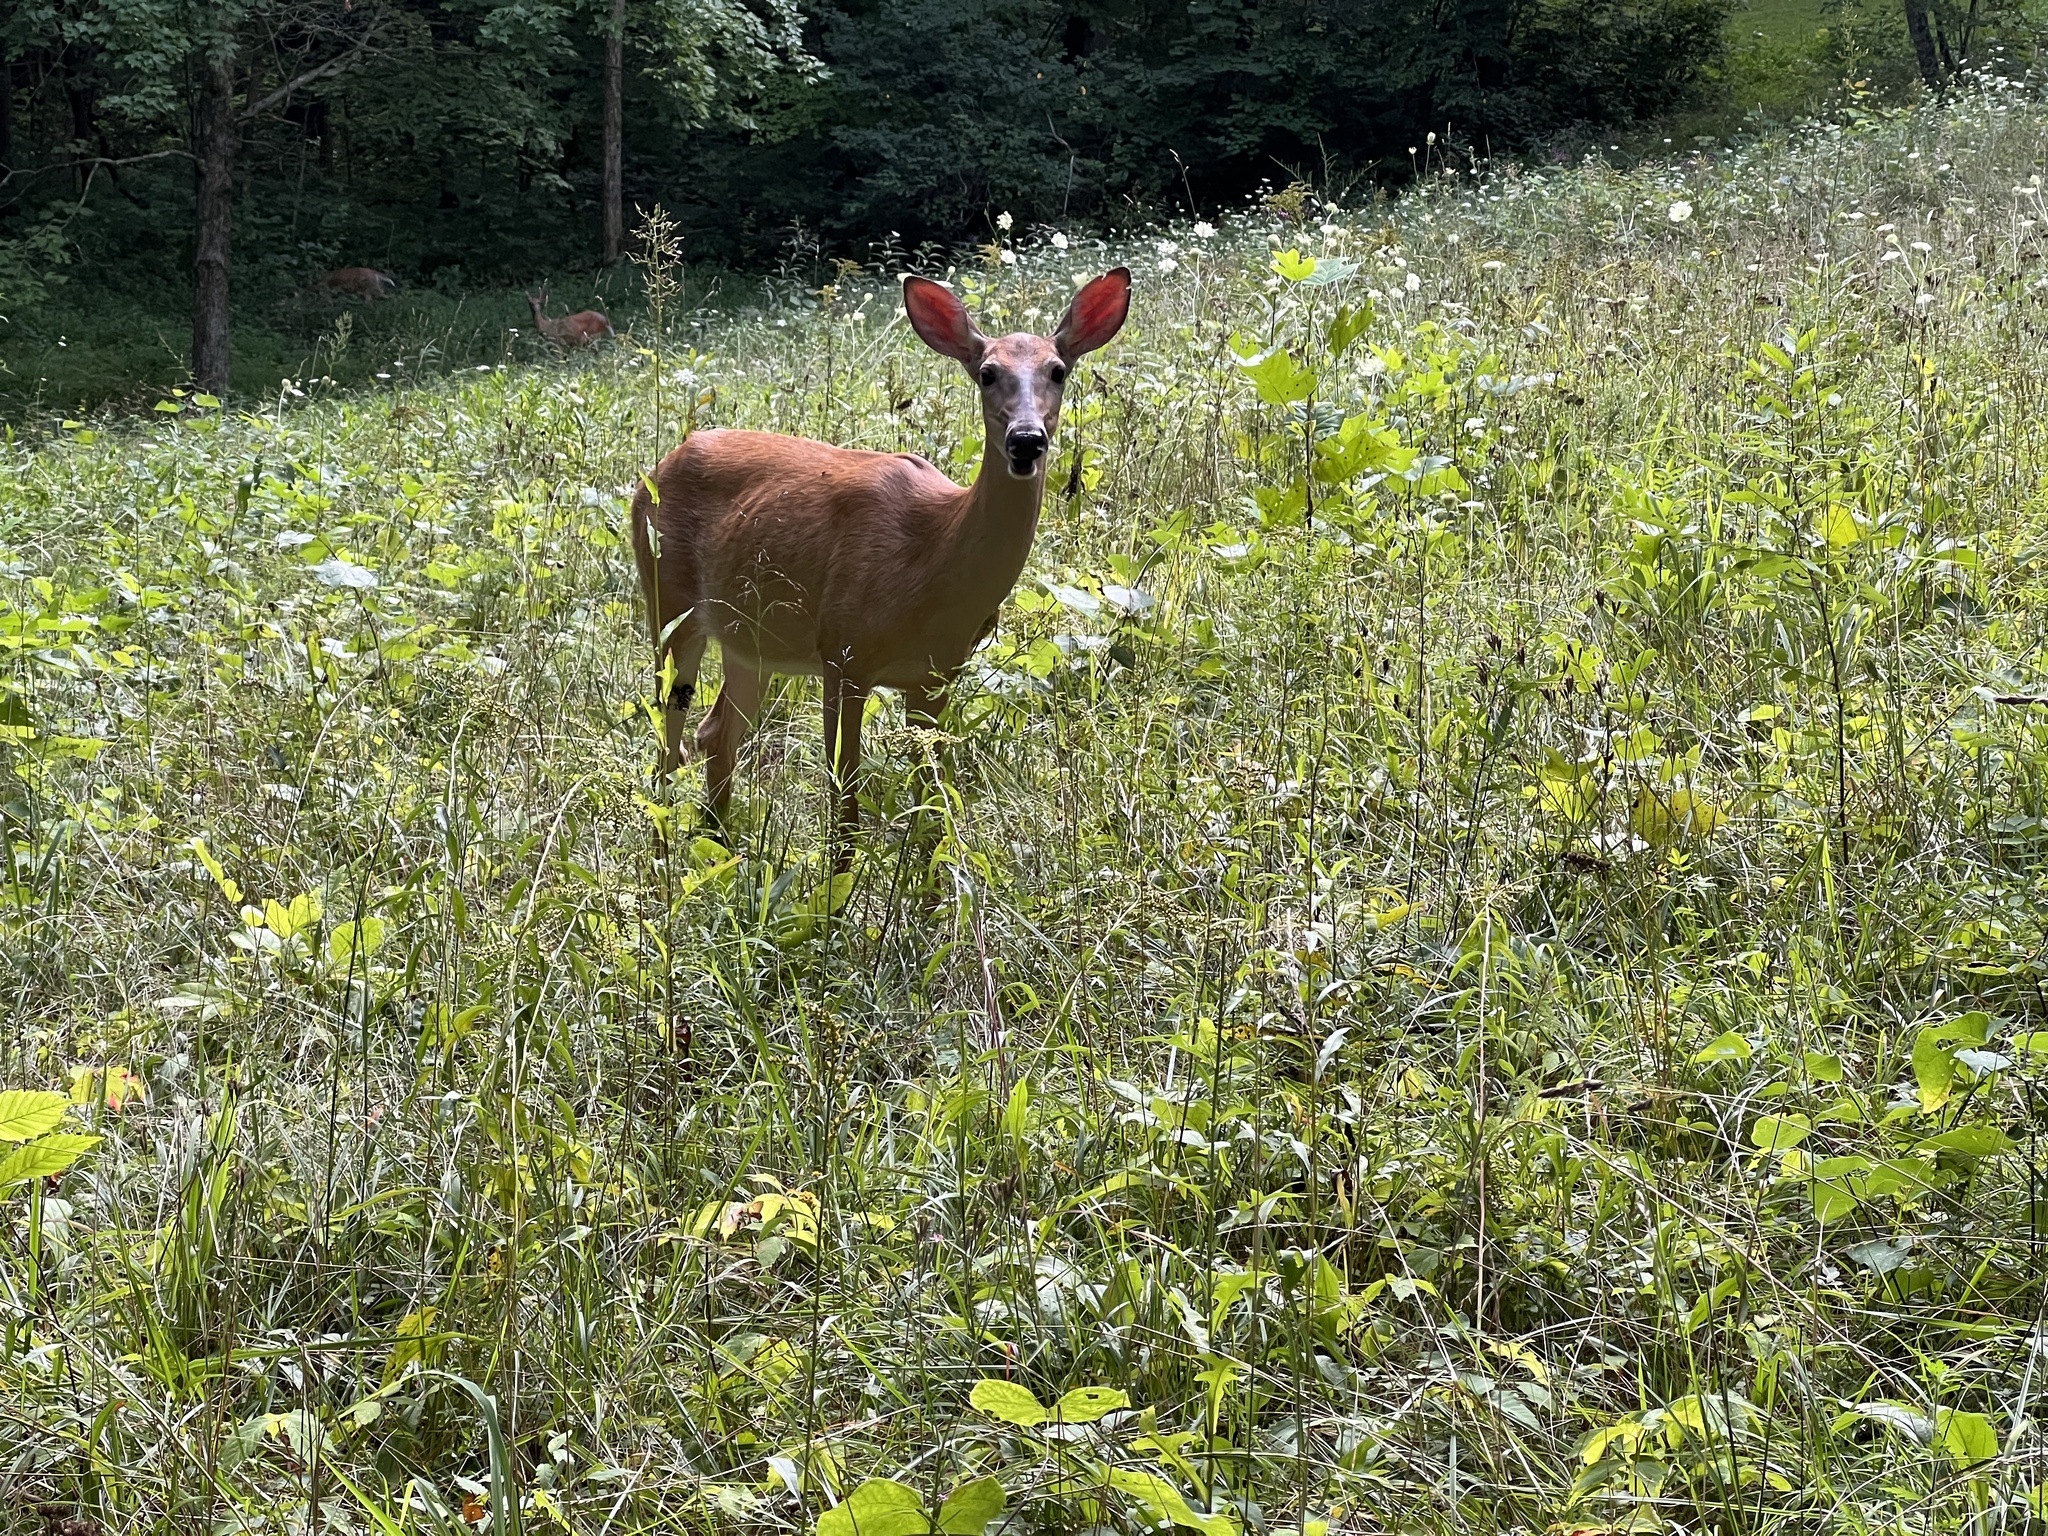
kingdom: Animalia
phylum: Chordata
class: Mammalia
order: Artiodactyla
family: Cervidae
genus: Odocoileus
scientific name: Odocoileus virginianus
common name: White-tailed deer
